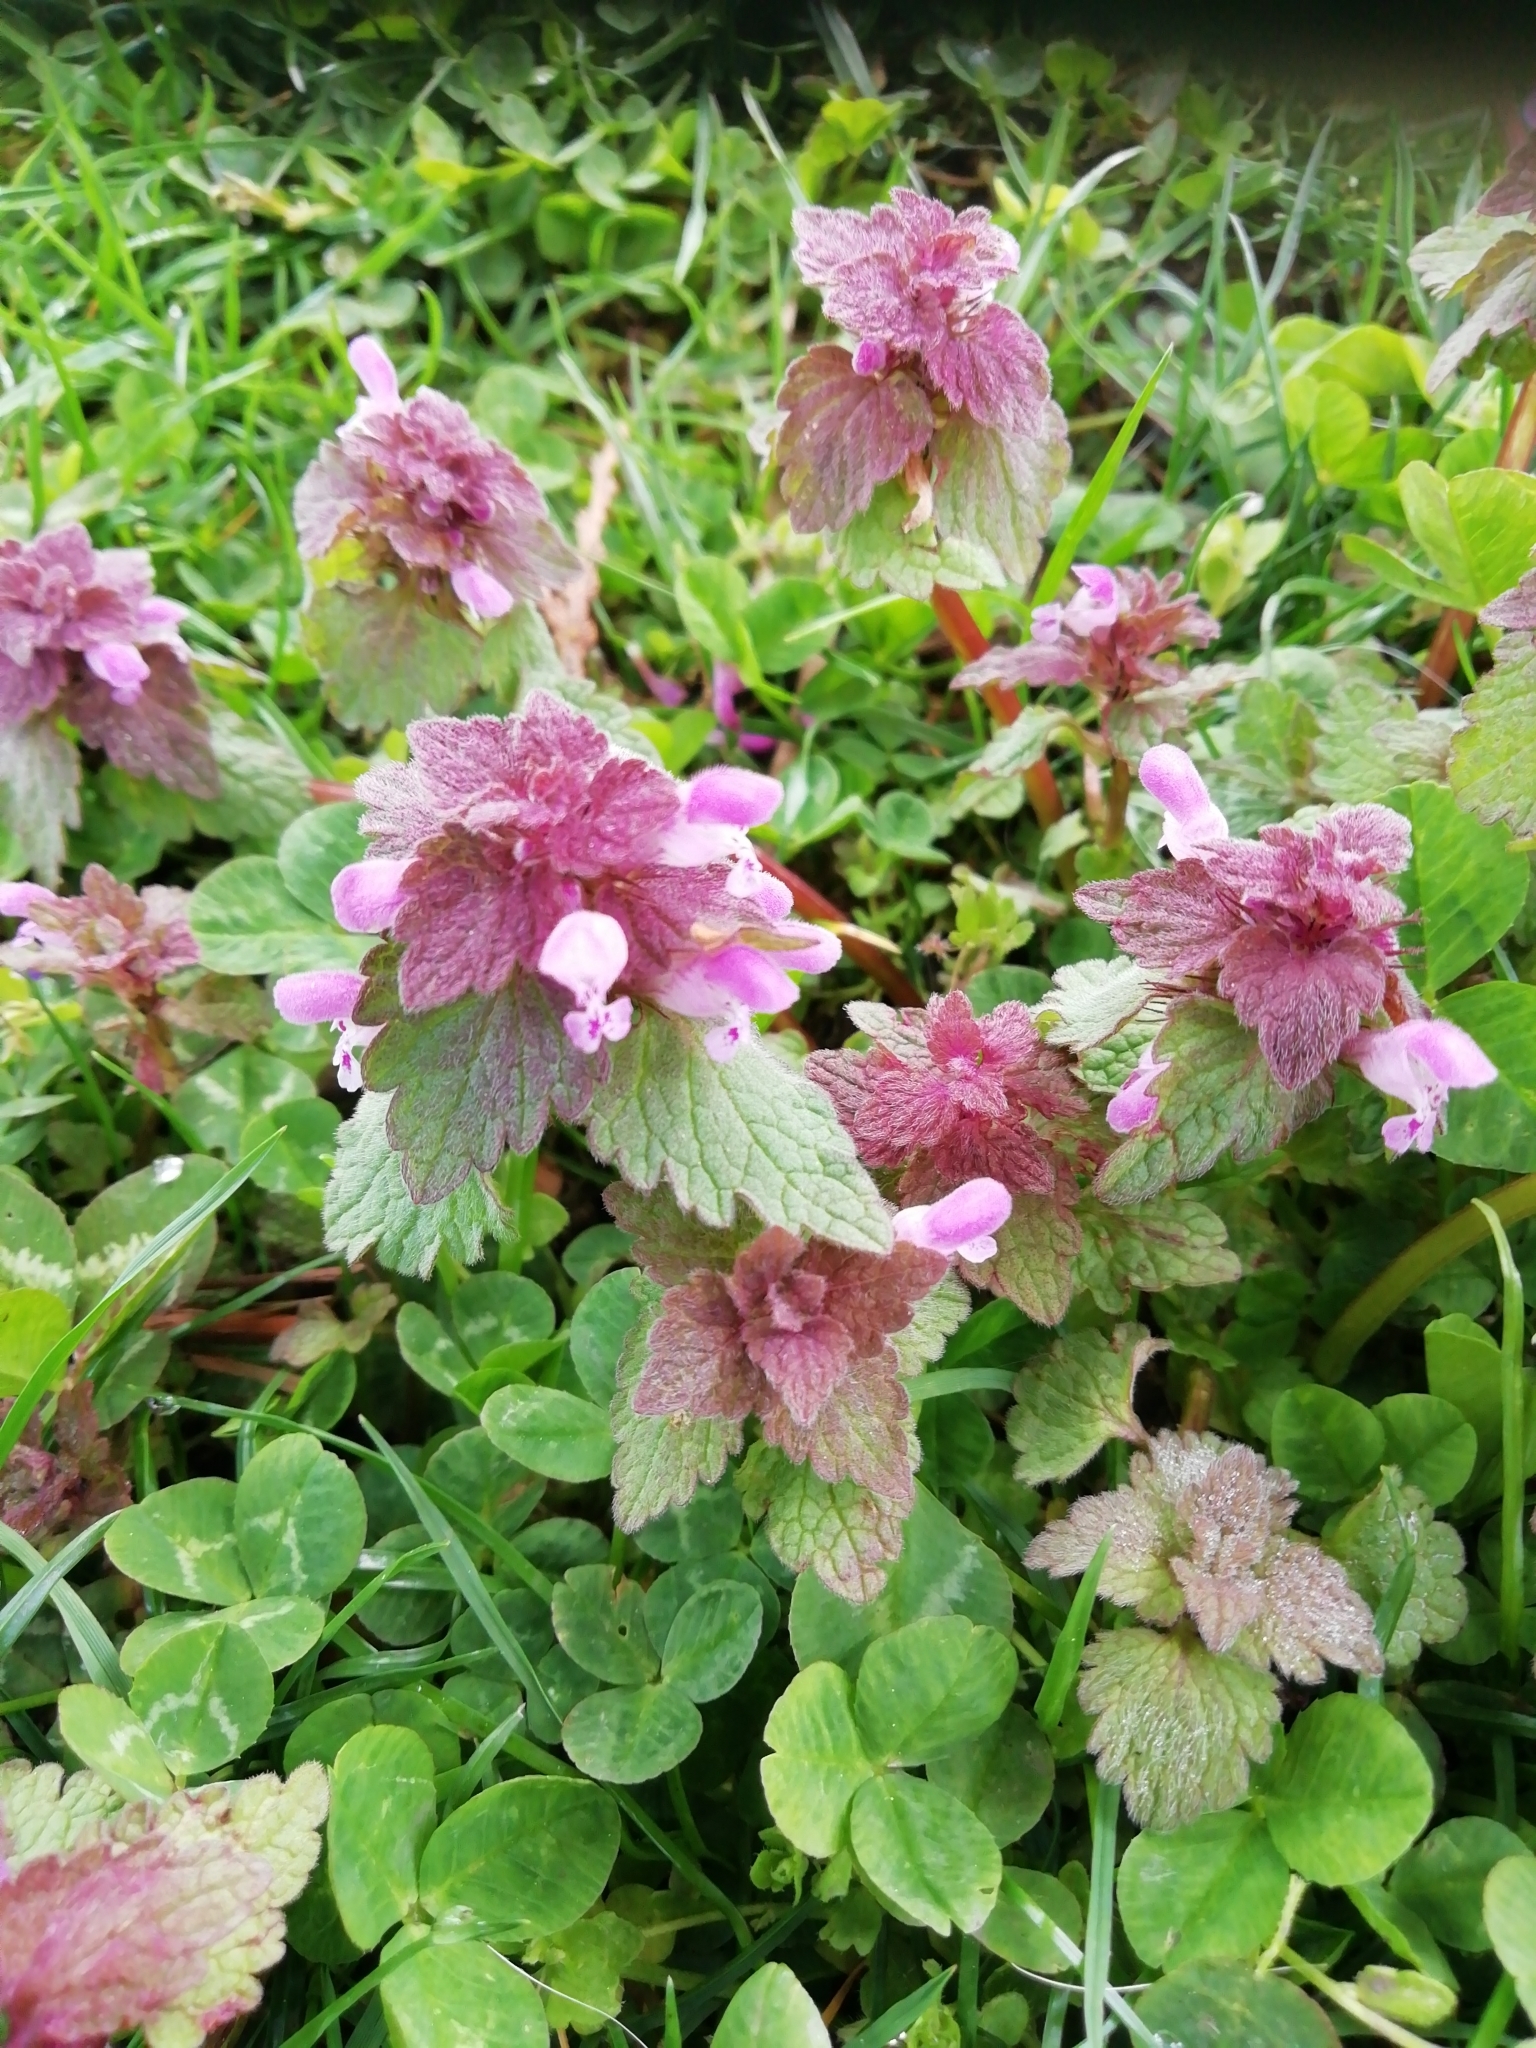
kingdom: Plantae
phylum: Tracheophyta
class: Magnoliopsida
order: Lamiales
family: Lamiaceae
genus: Lamium
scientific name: Lamium purpureum
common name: Red dead-nettle
